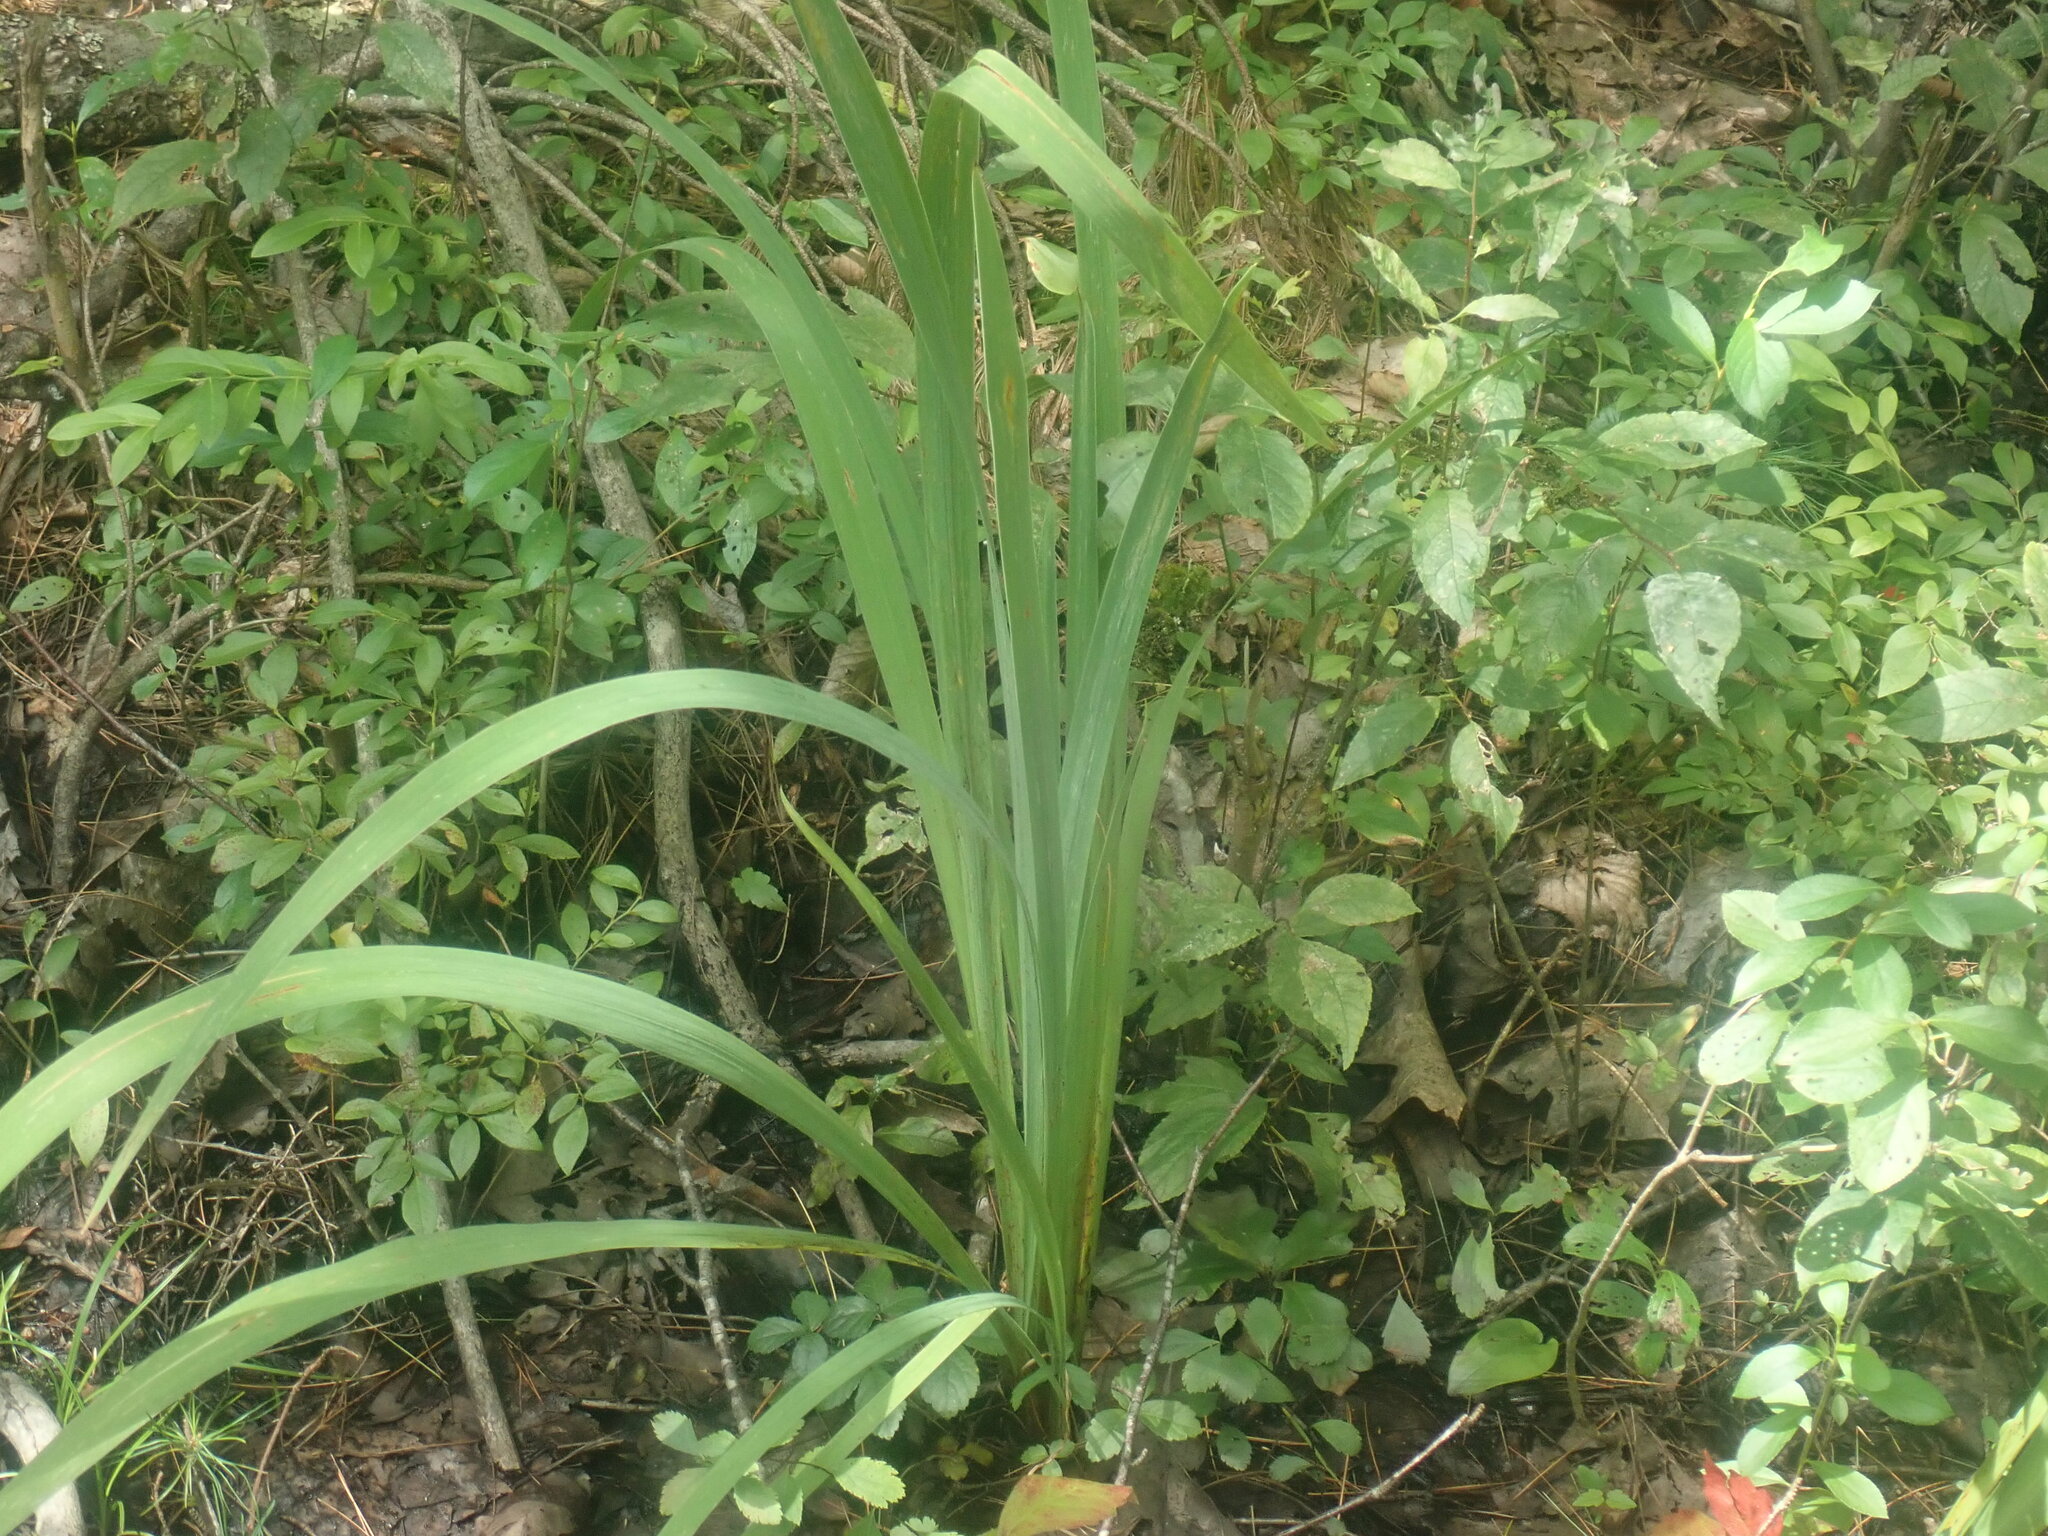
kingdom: Plantae
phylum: Tracheophyta
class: Liliopsida
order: Asparagales
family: Iridaceae
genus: Iris
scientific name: Iris
